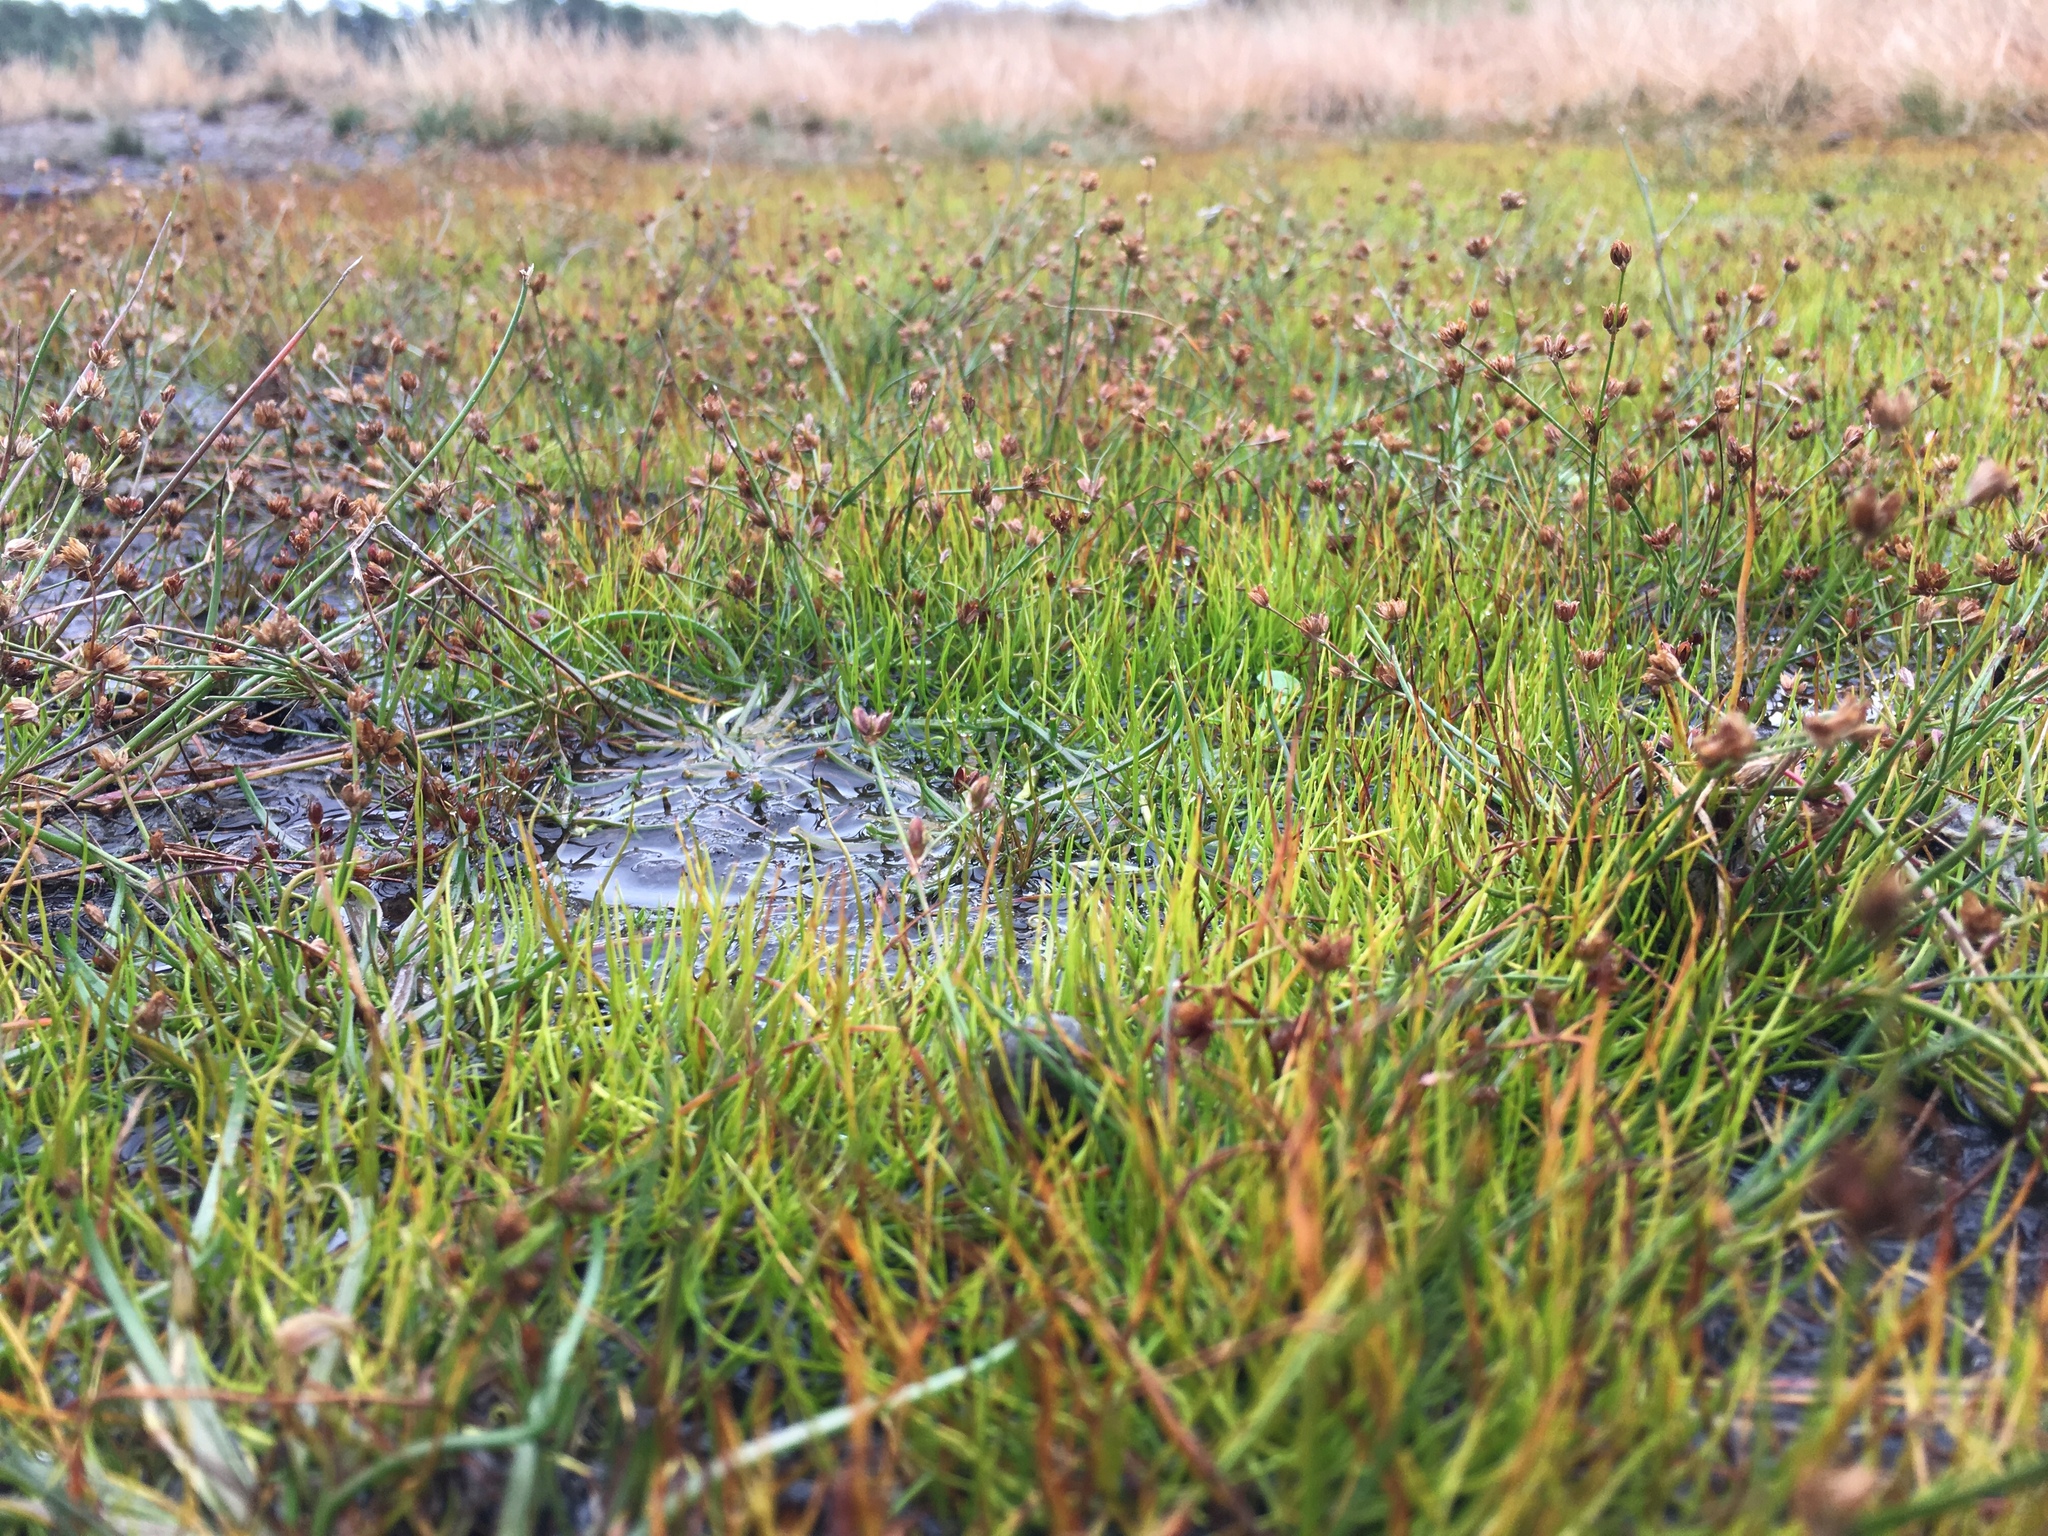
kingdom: Plantae
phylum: Tracheophyta
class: Liliopsida
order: Poales
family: Juncaceae
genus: Juncus
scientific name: Juncus bulbosus
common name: Bulbous rush
